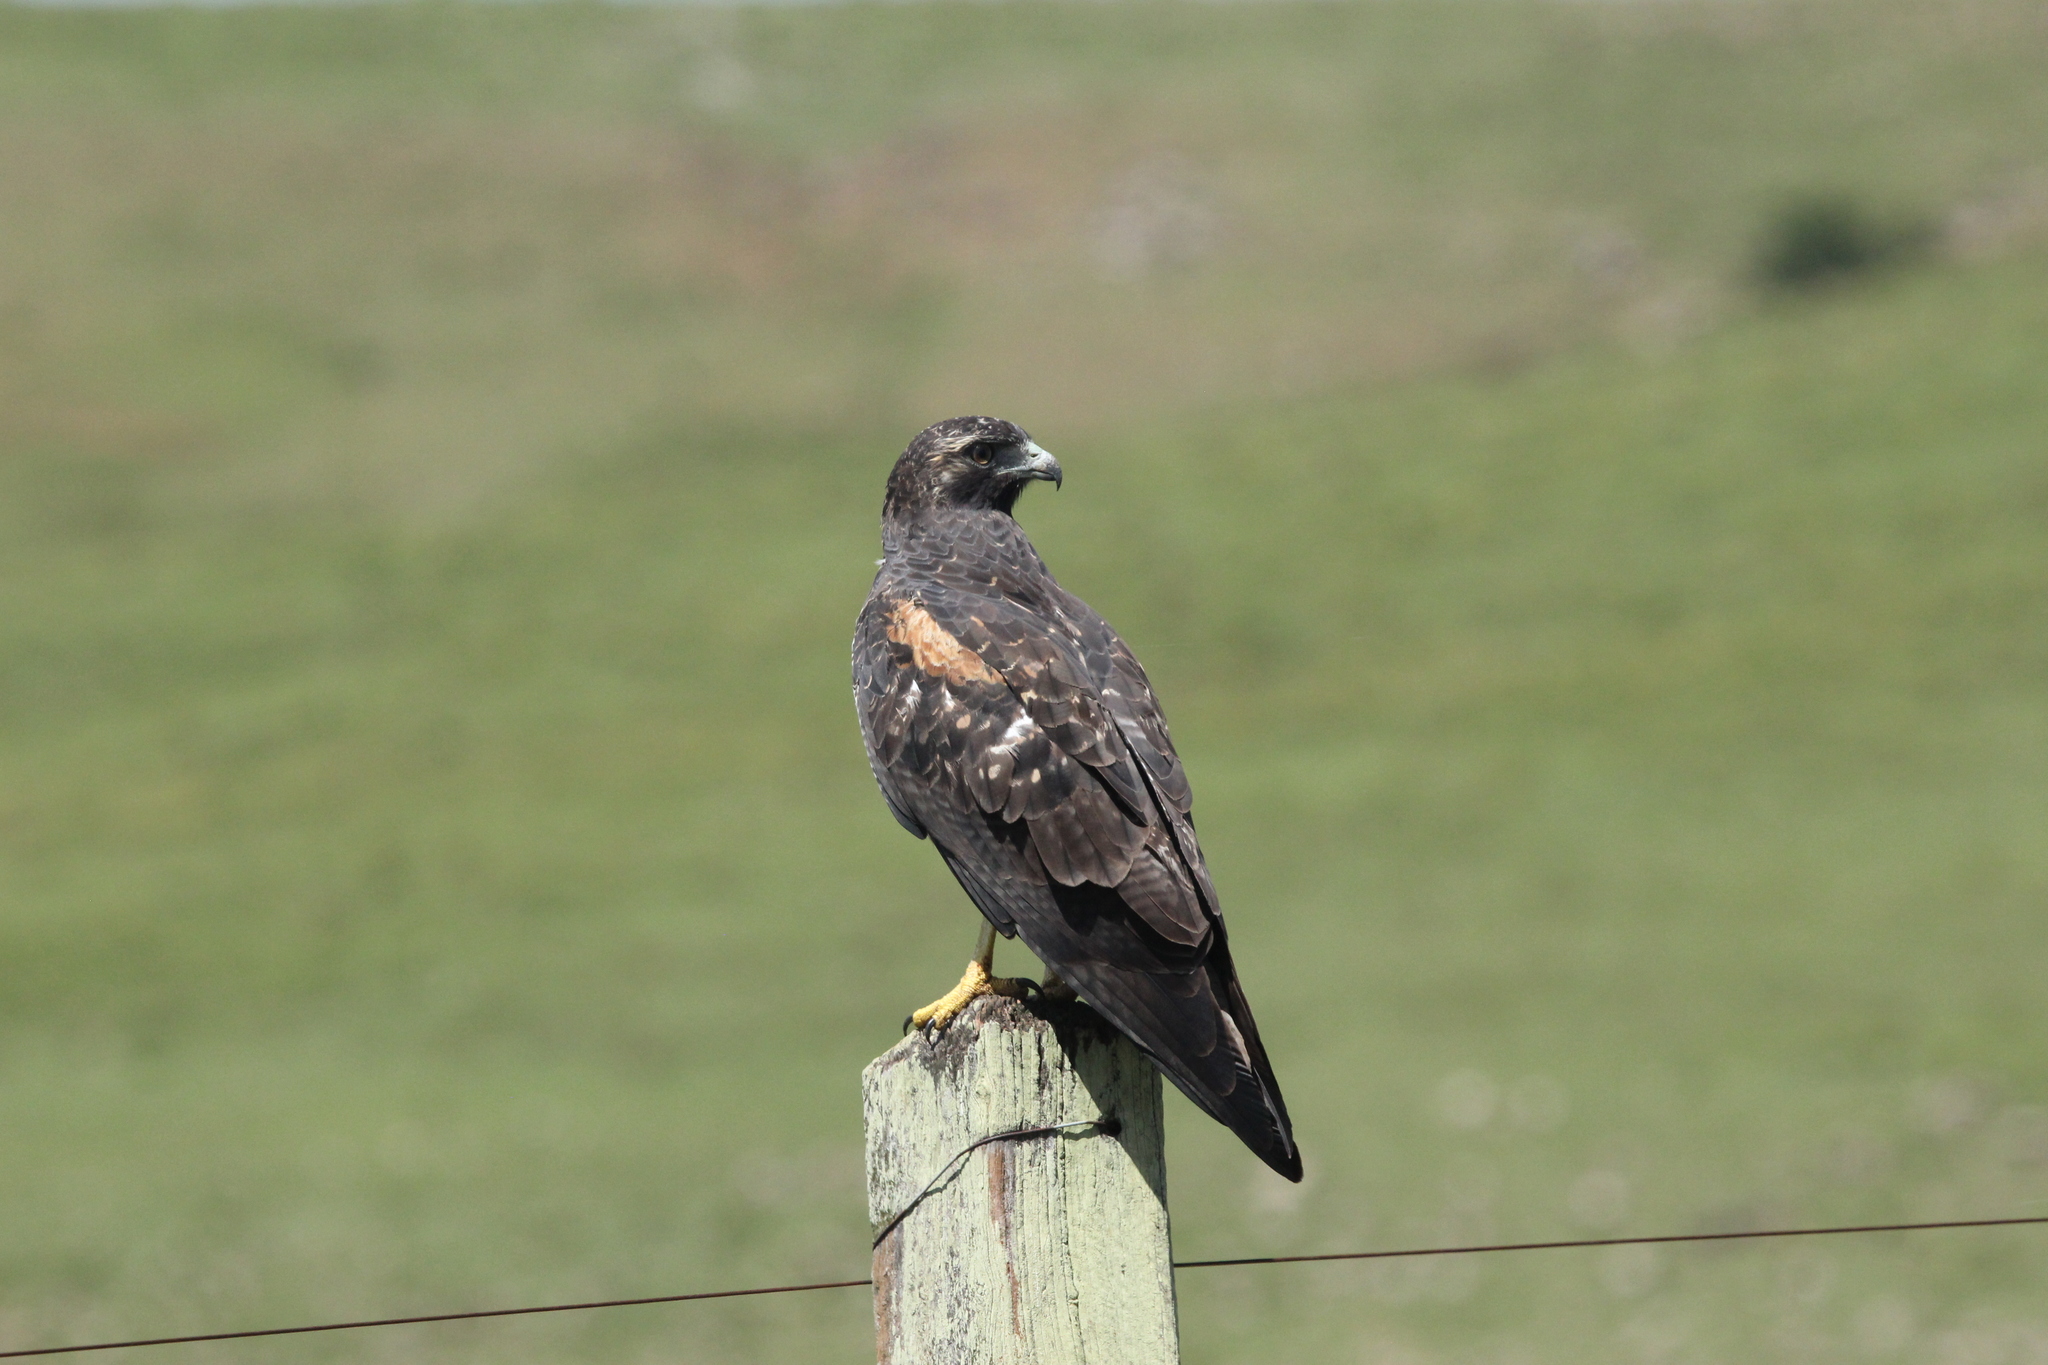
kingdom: Animalia
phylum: Chordata
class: Aves
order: Accipitriformes
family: Accipitridae
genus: Buteo
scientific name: Buteo albicaudatus
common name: White-tailed hawk
